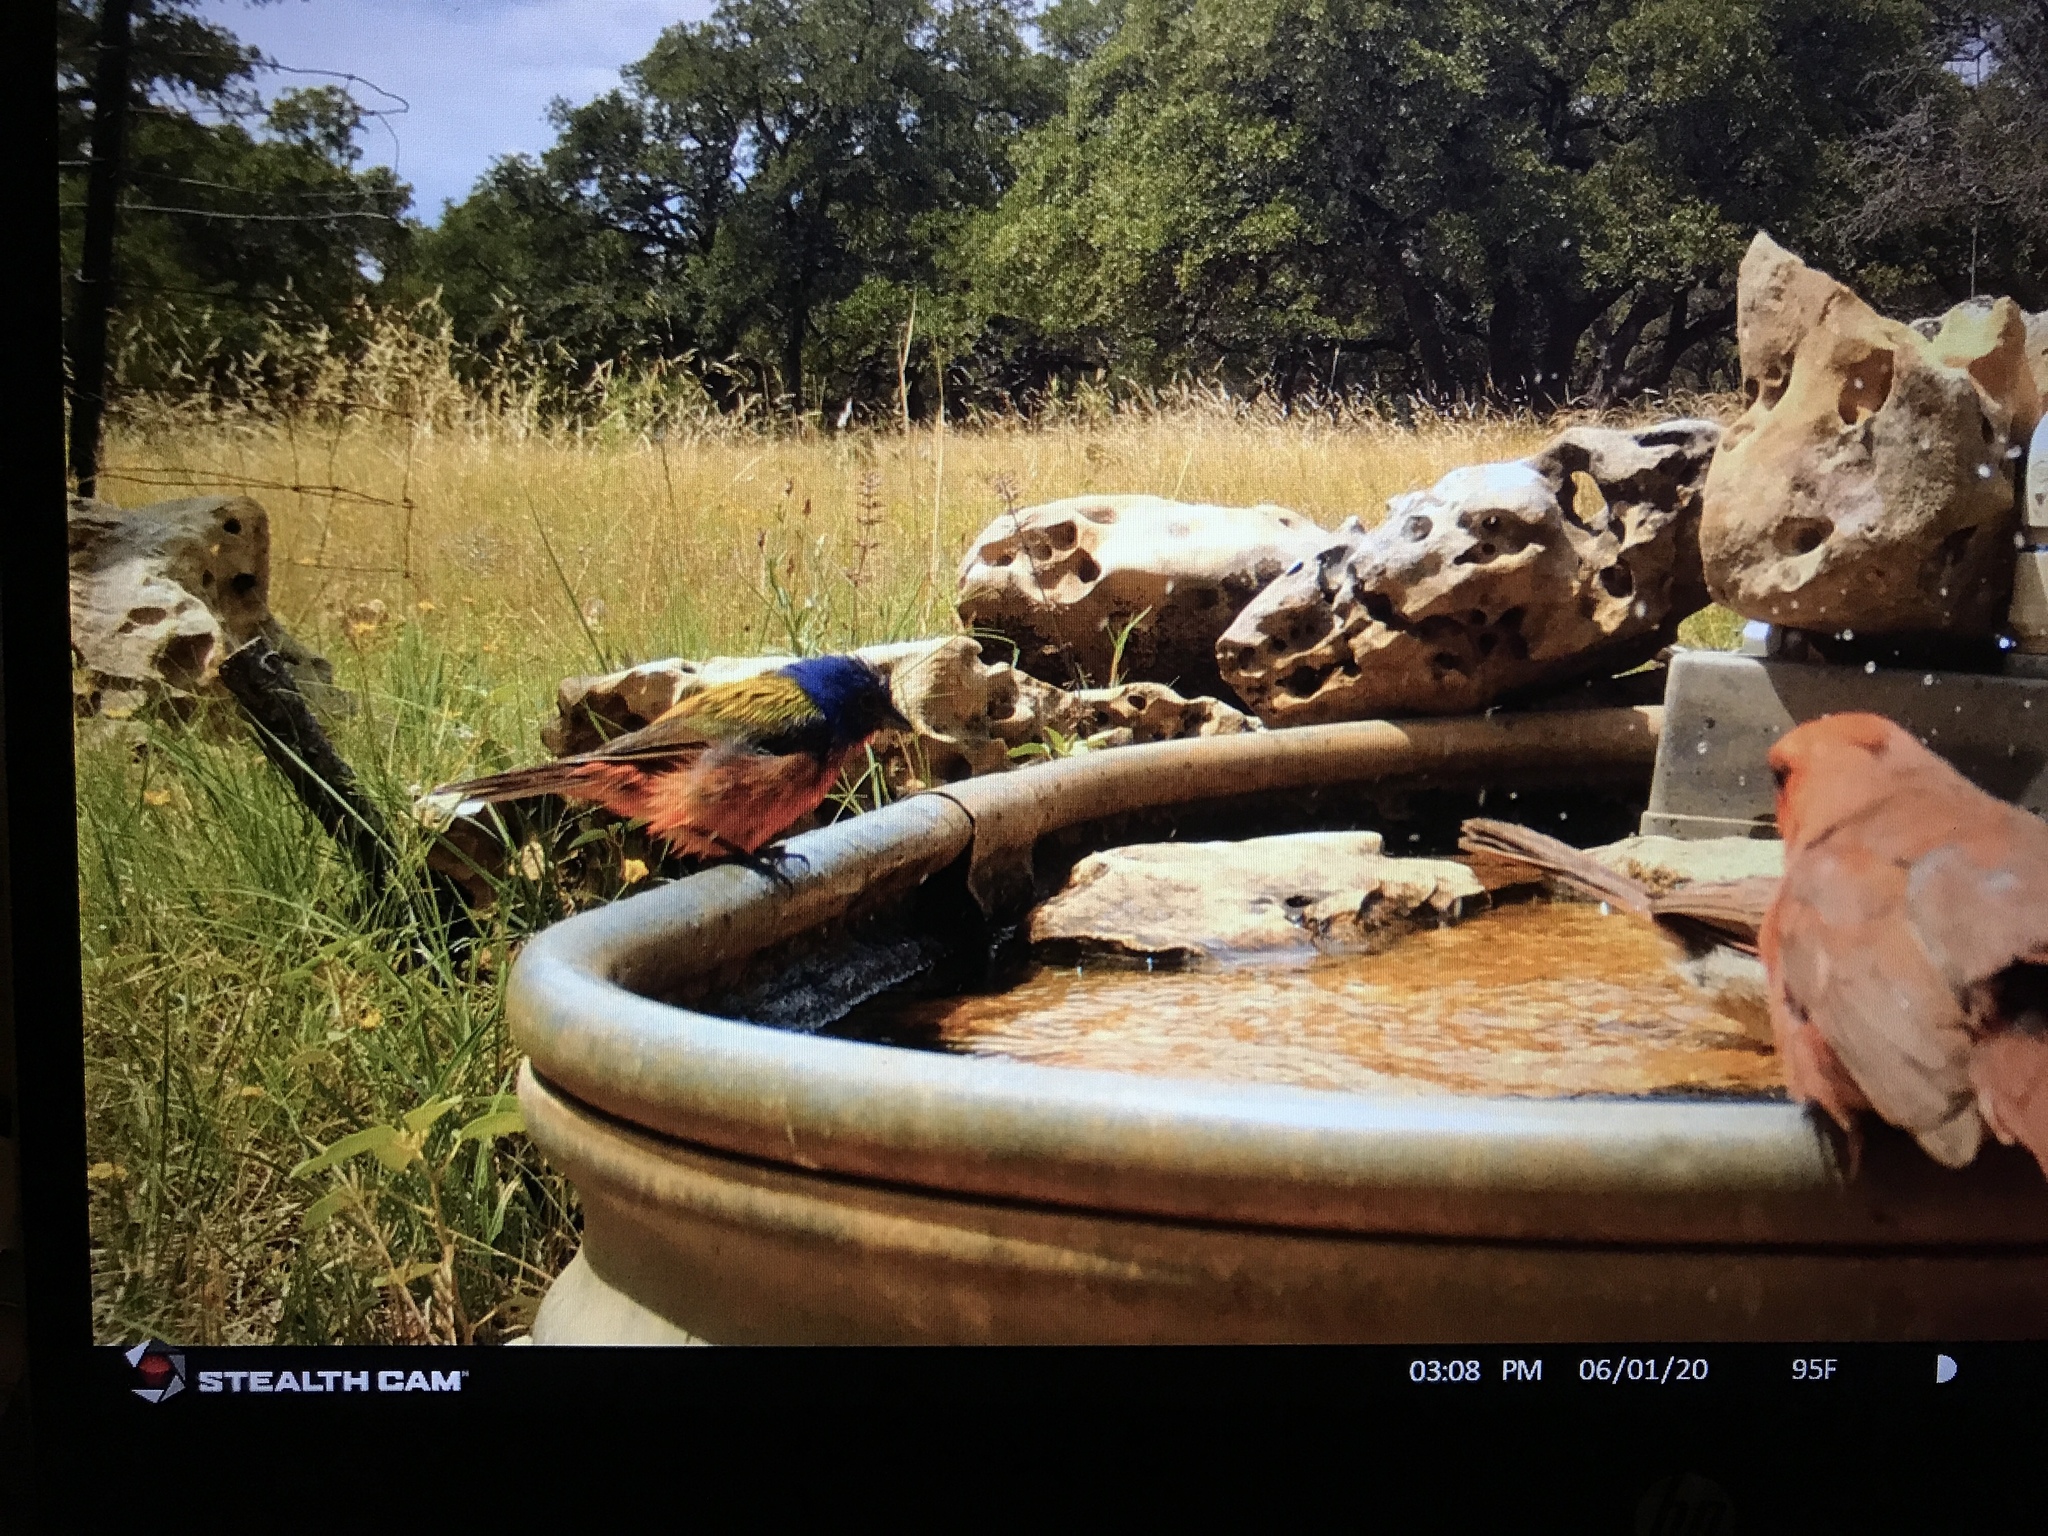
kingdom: Animalia
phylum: Chordata
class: Aves
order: Passeriformes
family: Cardinalidae
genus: Passerina
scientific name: Passerina ciris
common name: Painted bunting
